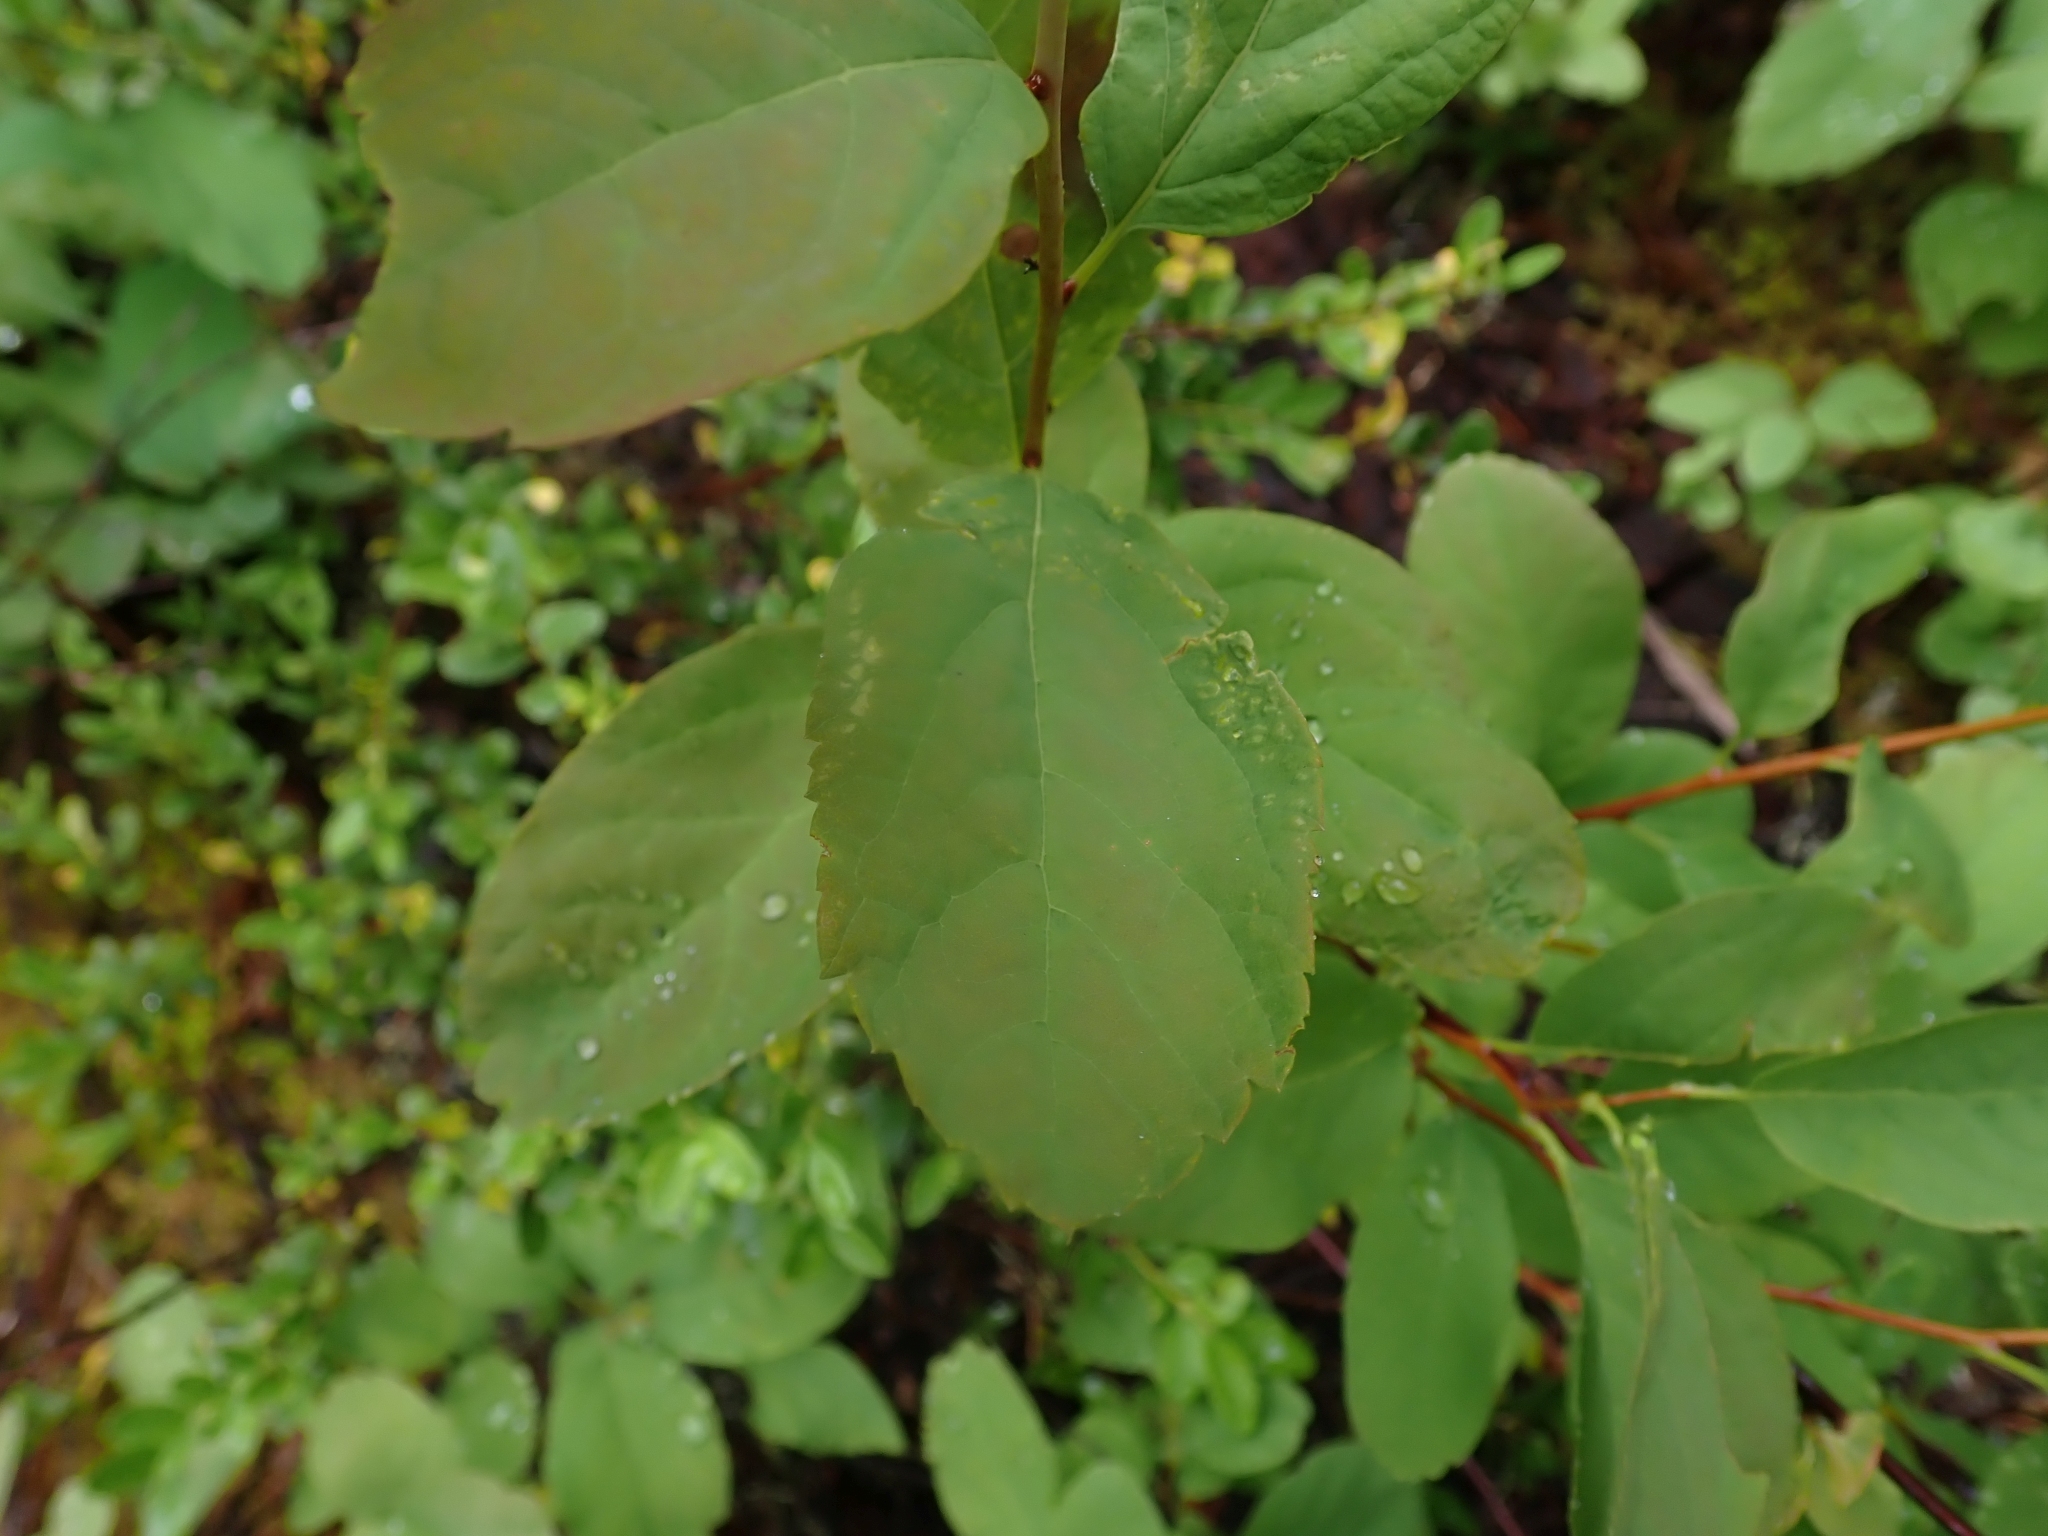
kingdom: Plantae
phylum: Tracheophyta
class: Magnoliopsida
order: Rosales
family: Rosaceae
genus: Spiraea
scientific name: Spiraea lucida
